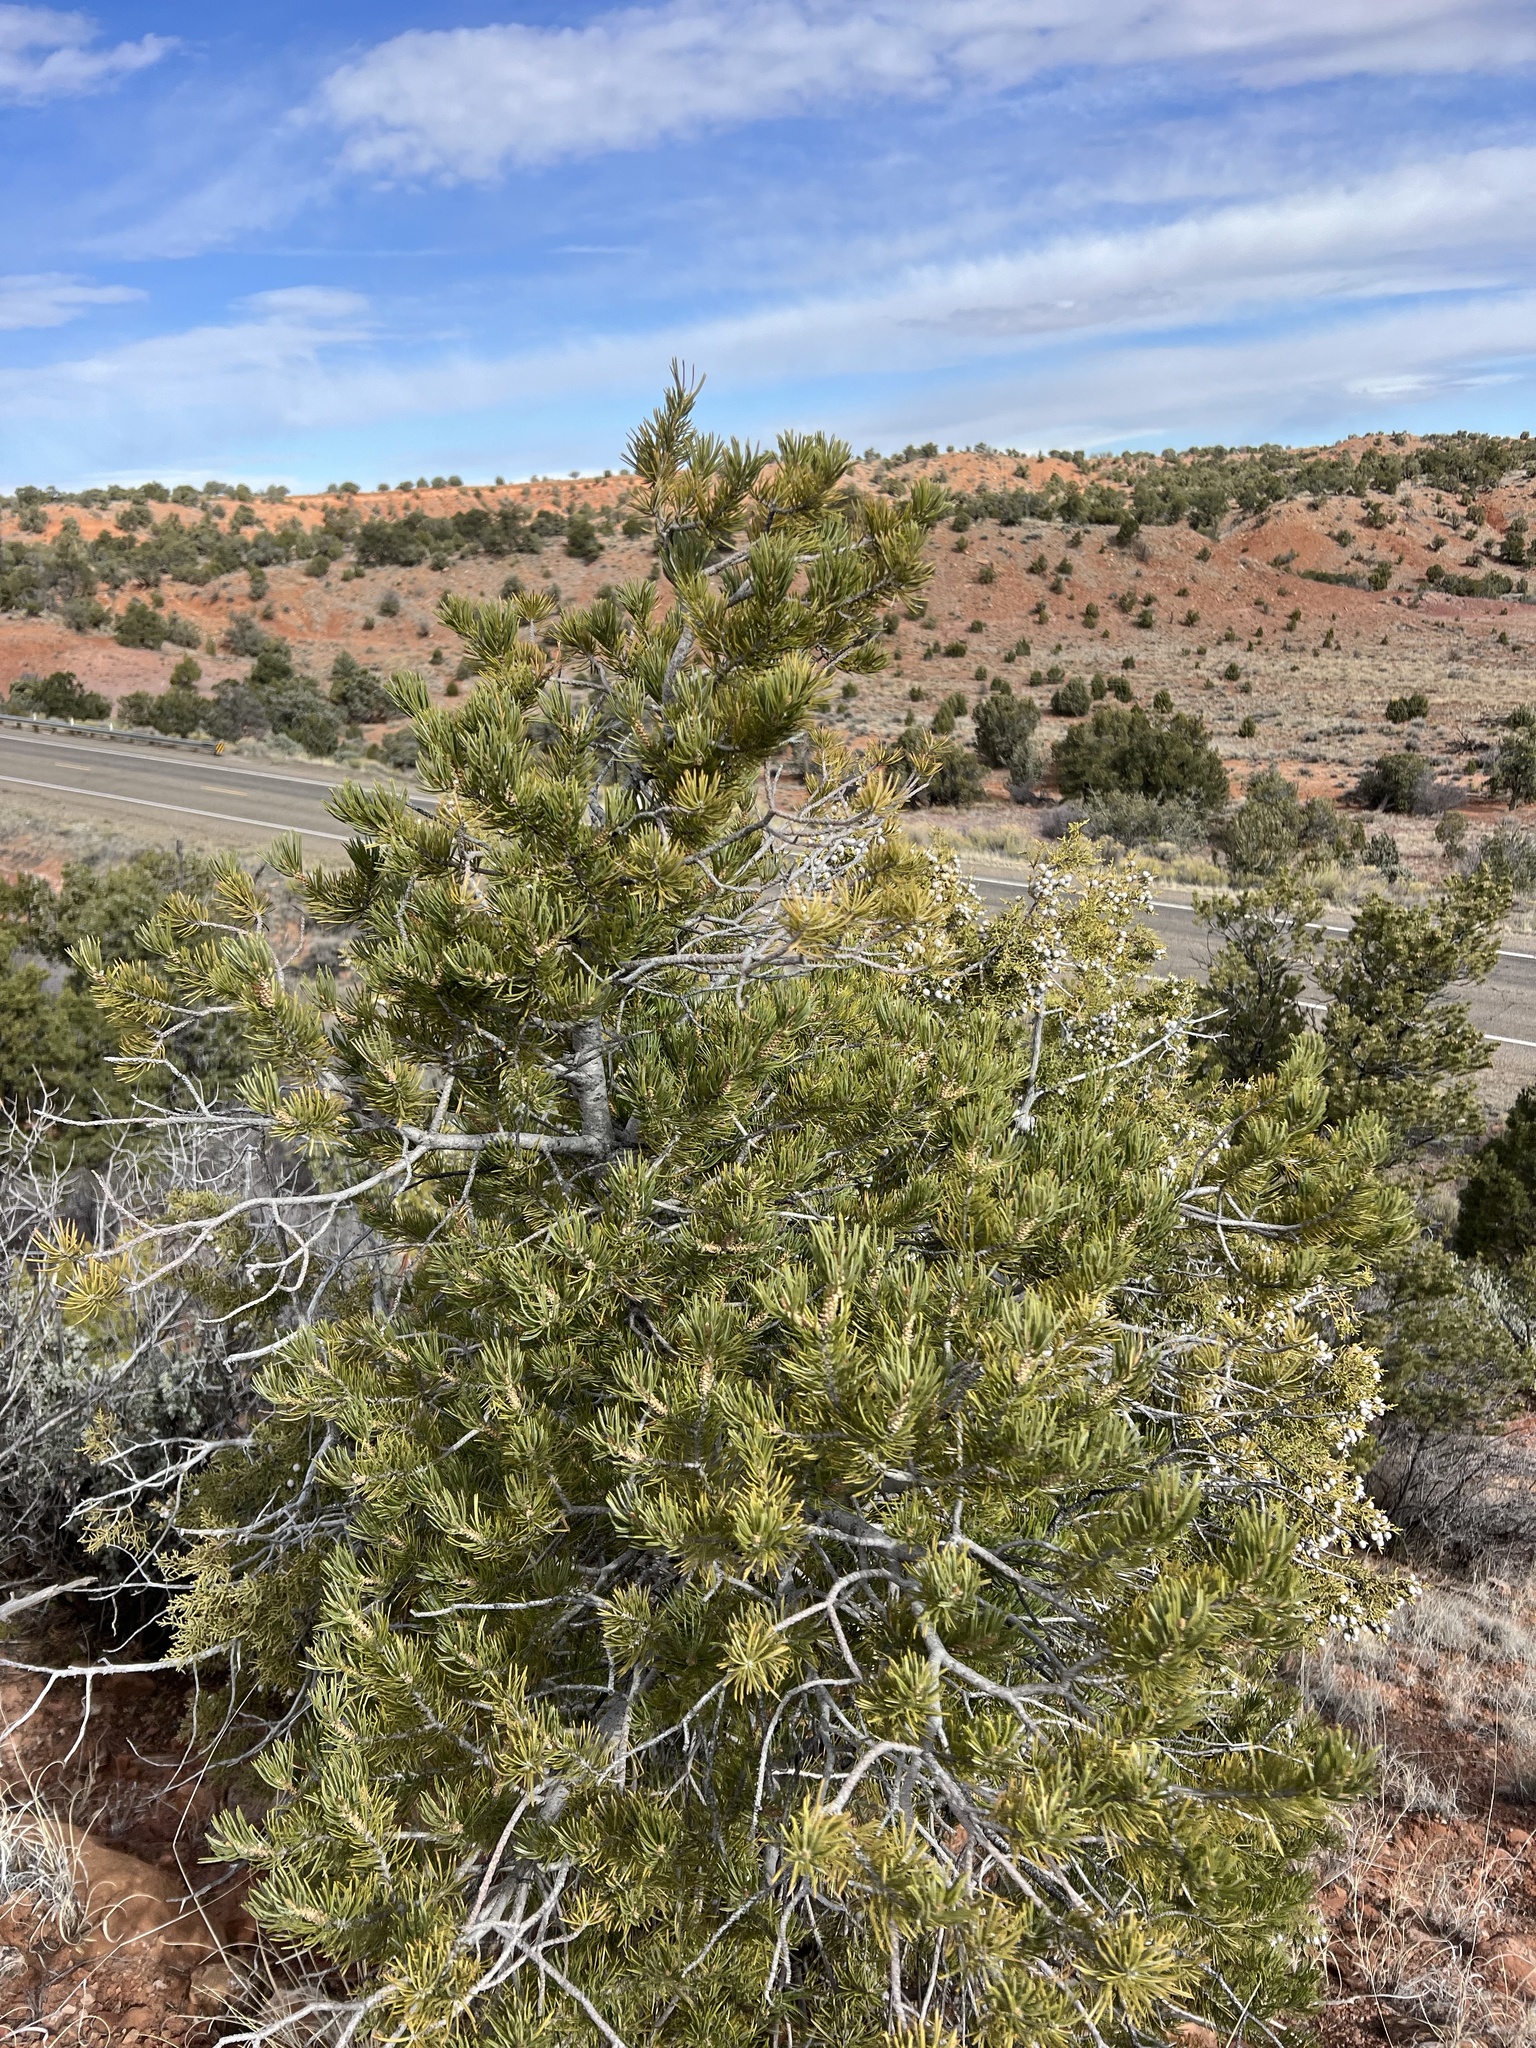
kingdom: Plantae
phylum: Tracheophyta
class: Pinopsida
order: Pinales
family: Pinaceae
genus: Pinus
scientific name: Pinus edulis
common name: Colorado pinyon
